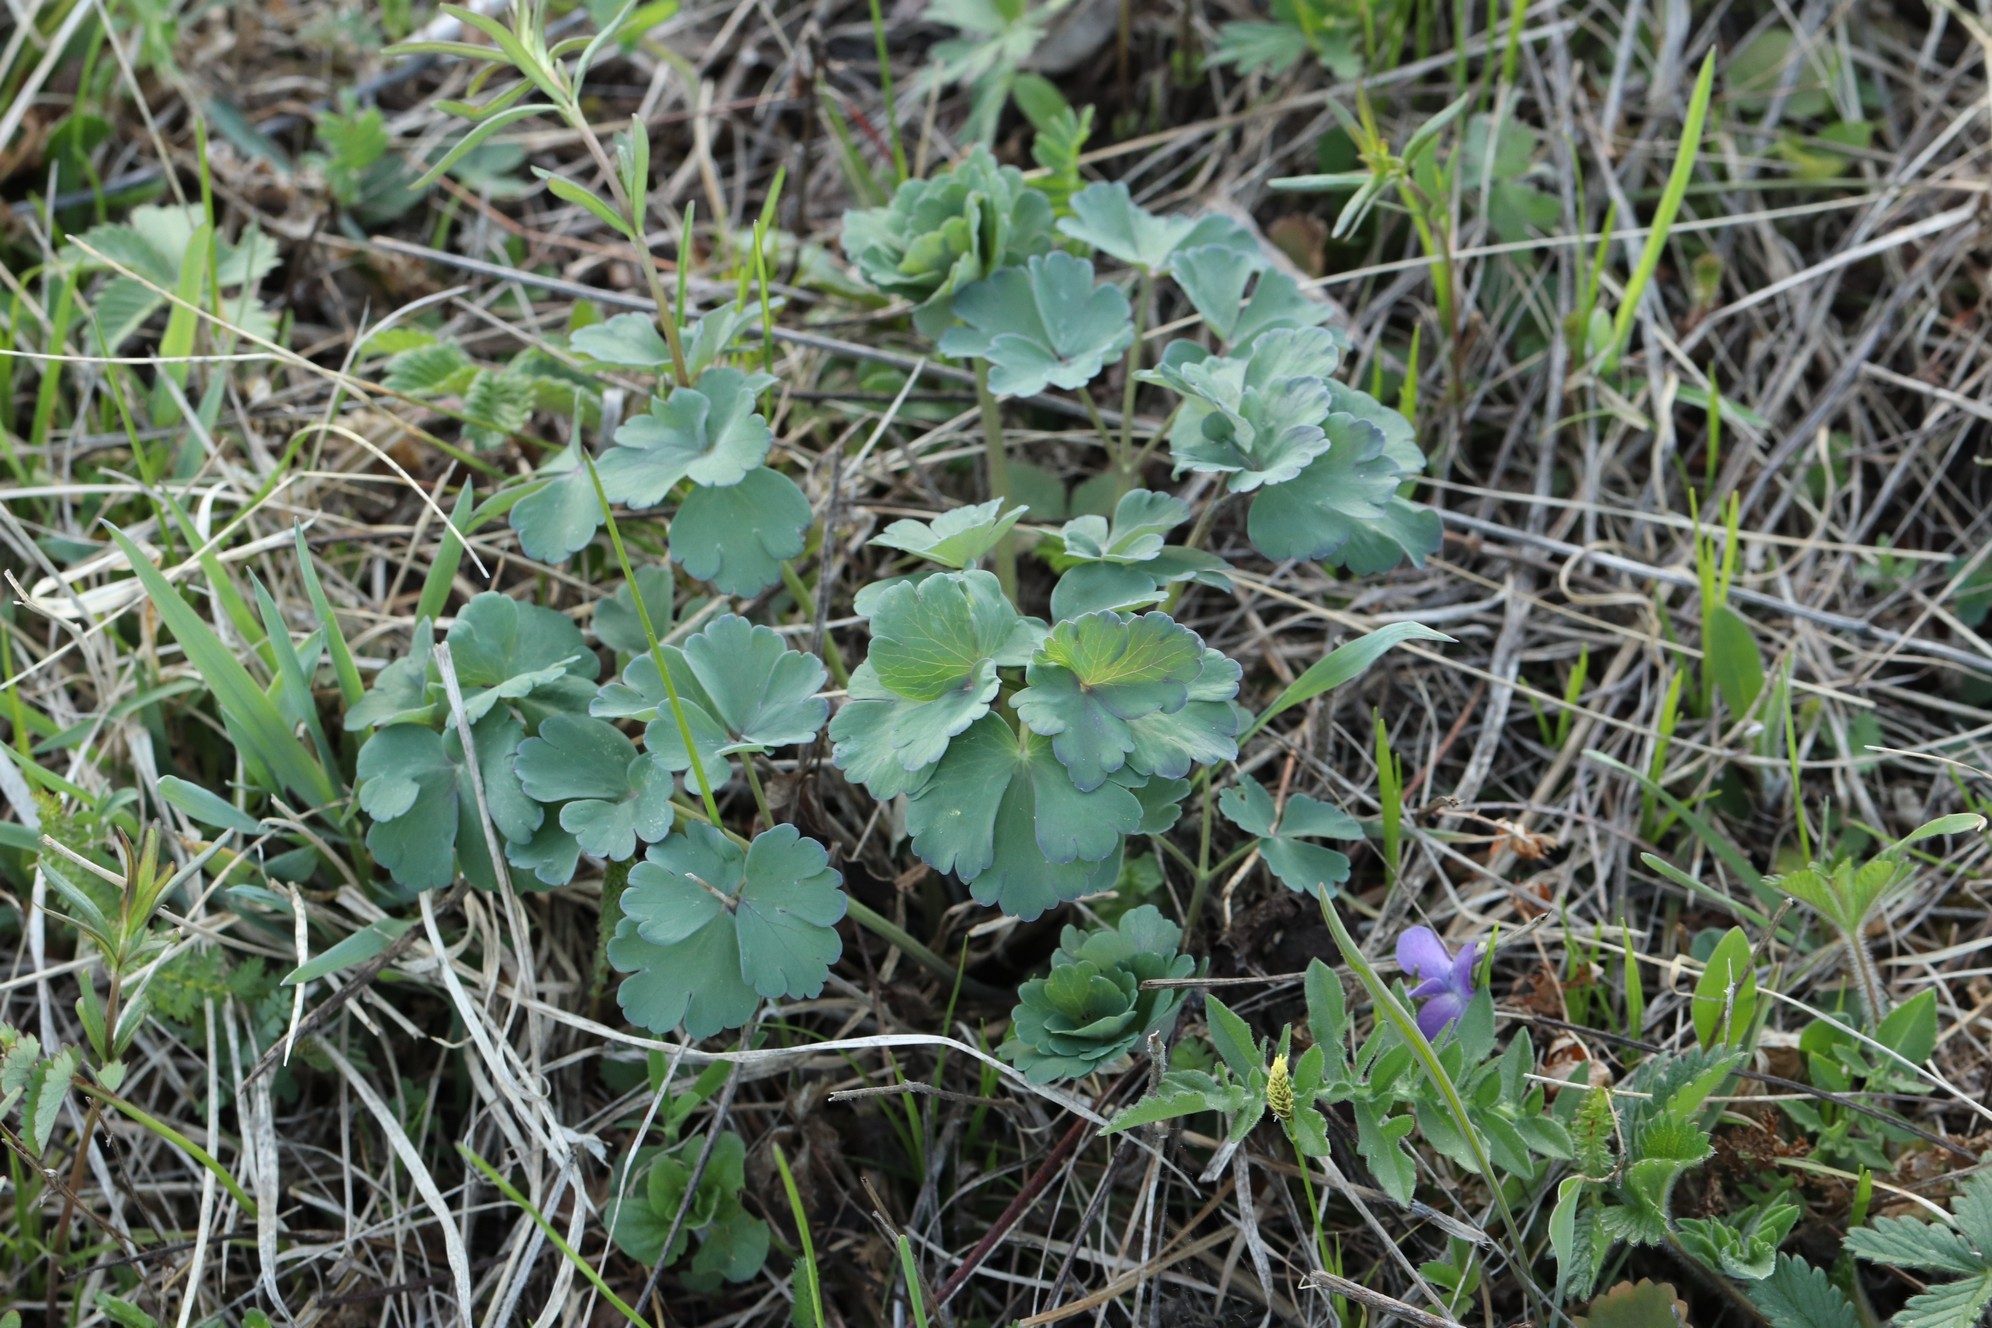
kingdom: Plantae
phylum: Tracheophyta
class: Magnoliopsida
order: Ranunculales
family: Ranunculaceae
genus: Aquilegia
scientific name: Aquilegia sibirica
